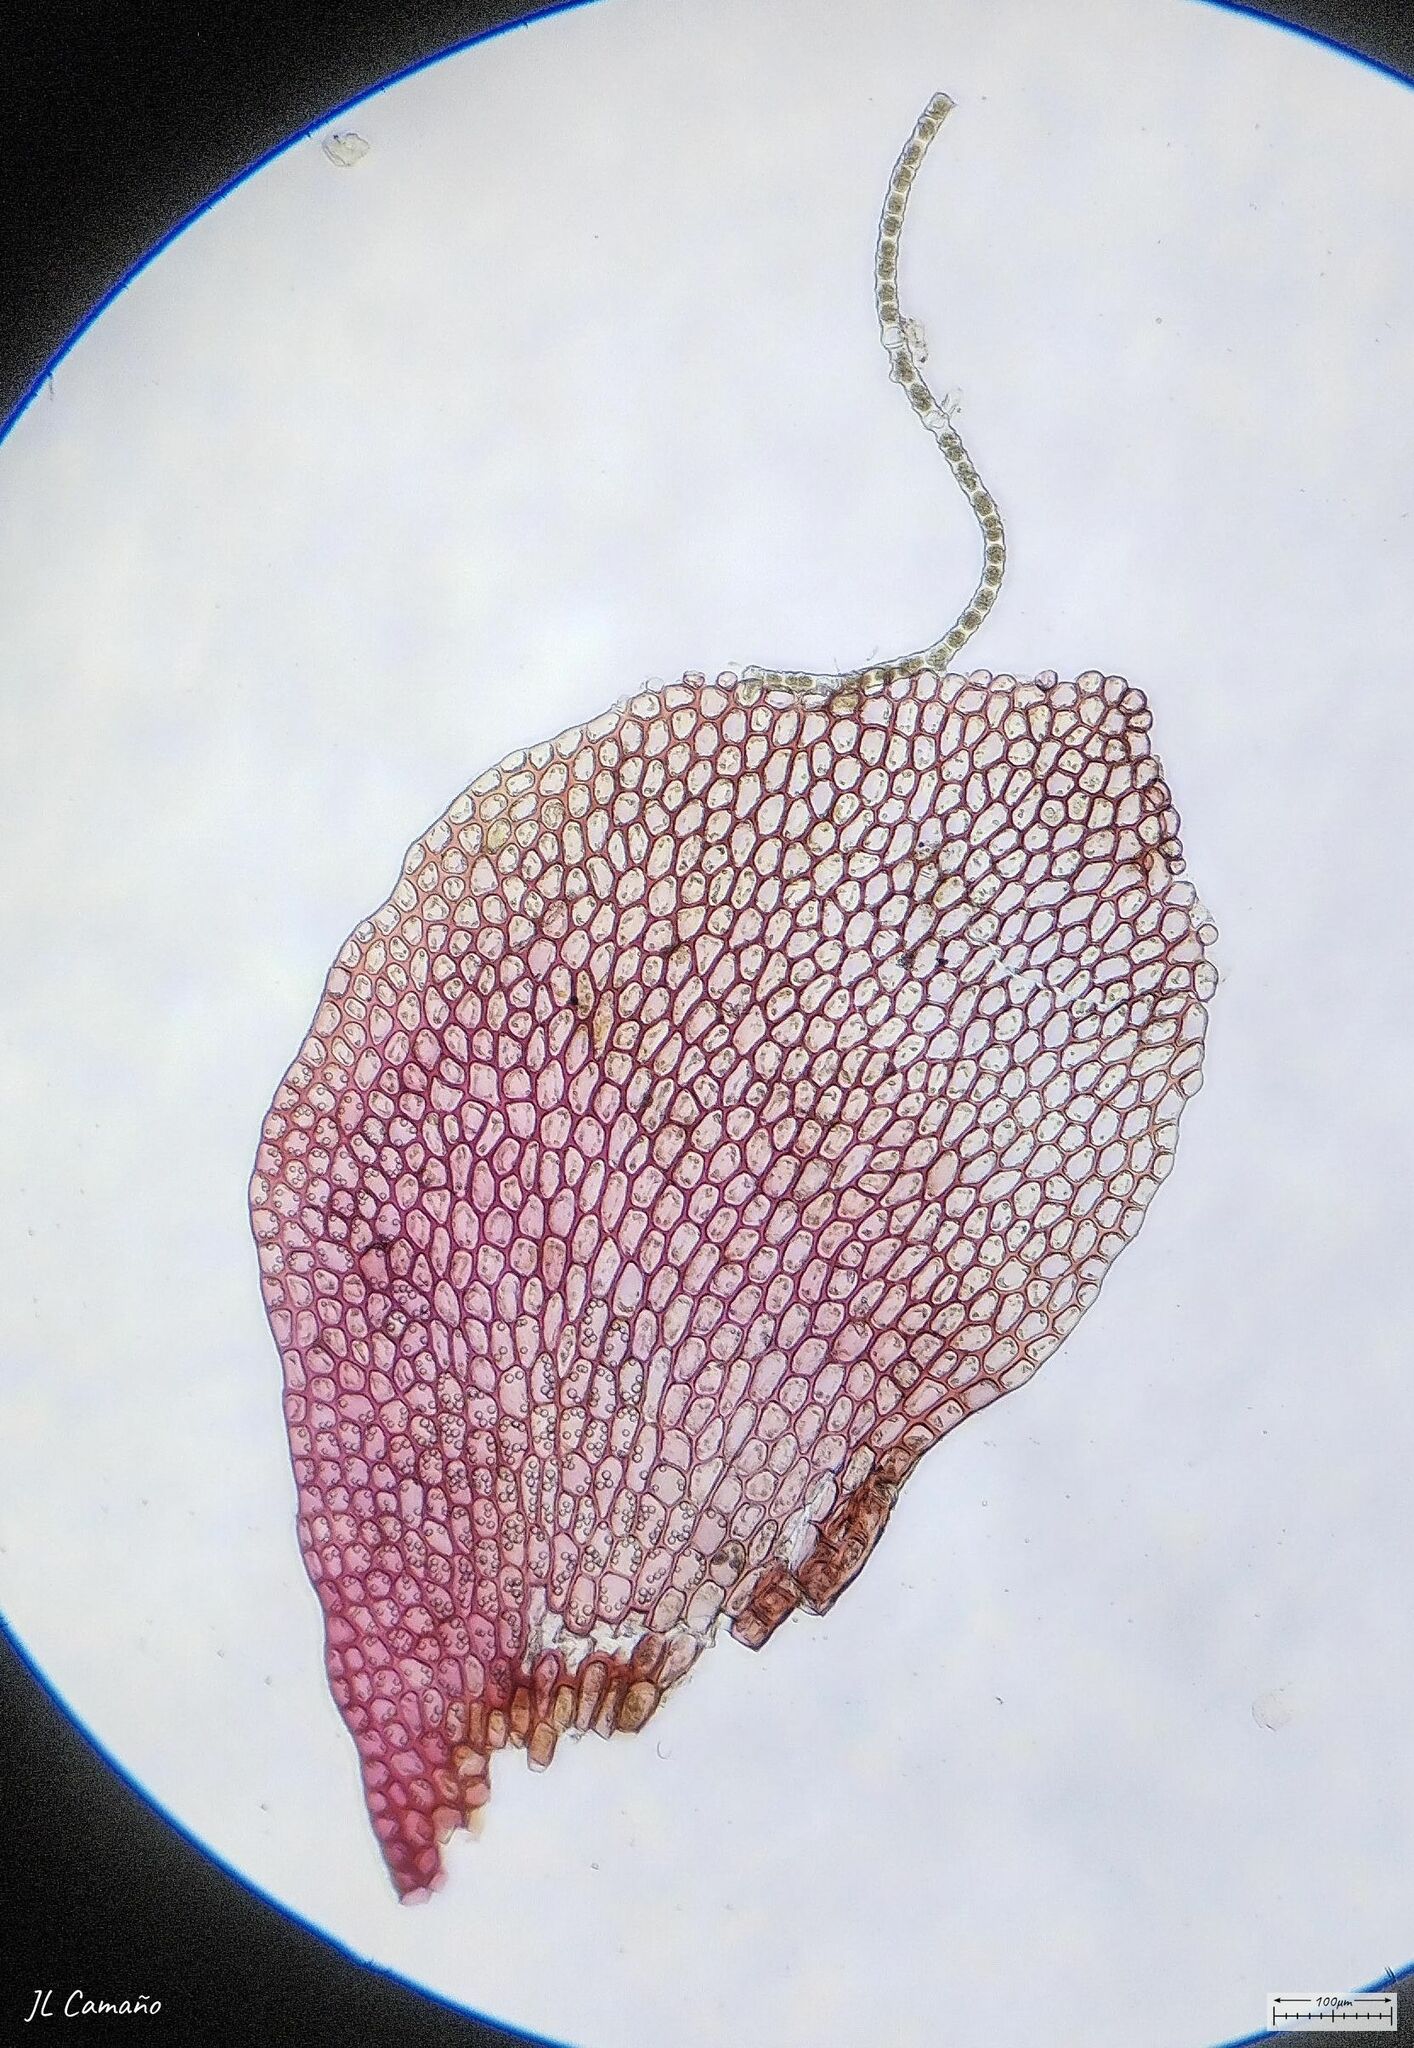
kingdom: Plantae
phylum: Marchantiophyta
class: Jungermanniopsida
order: Jungermanniales
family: Scapaniaceae
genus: Scapania
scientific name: Scapania undulata
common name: Water earwort
